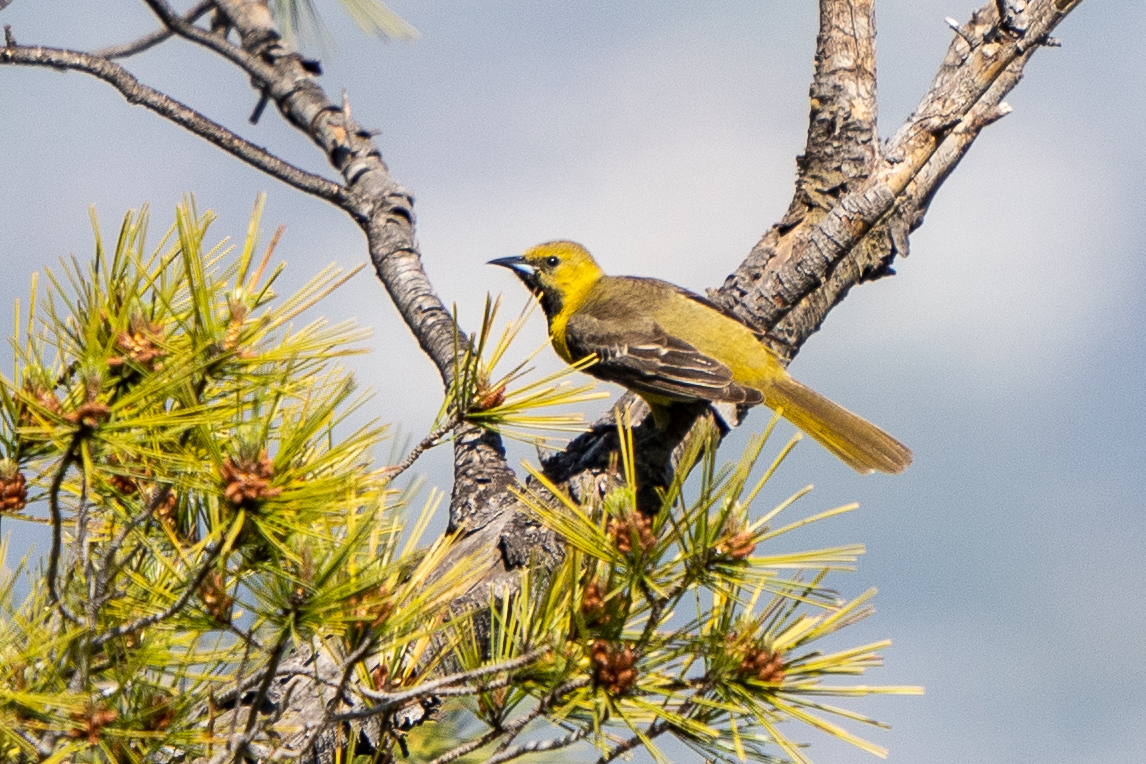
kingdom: Animalia
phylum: Chordata
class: Aves
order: Passeriformes
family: Icteridae
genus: Icterus
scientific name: Icterus cucullatus
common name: Hooded oriole
